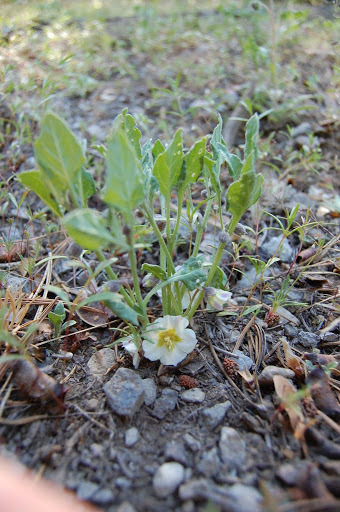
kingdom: Plantae
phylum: Tracheophyta
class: Magnoliopsida
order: Solanales
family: Solanaceae
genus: Leucophysalis
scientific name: Leucophysalis nana
